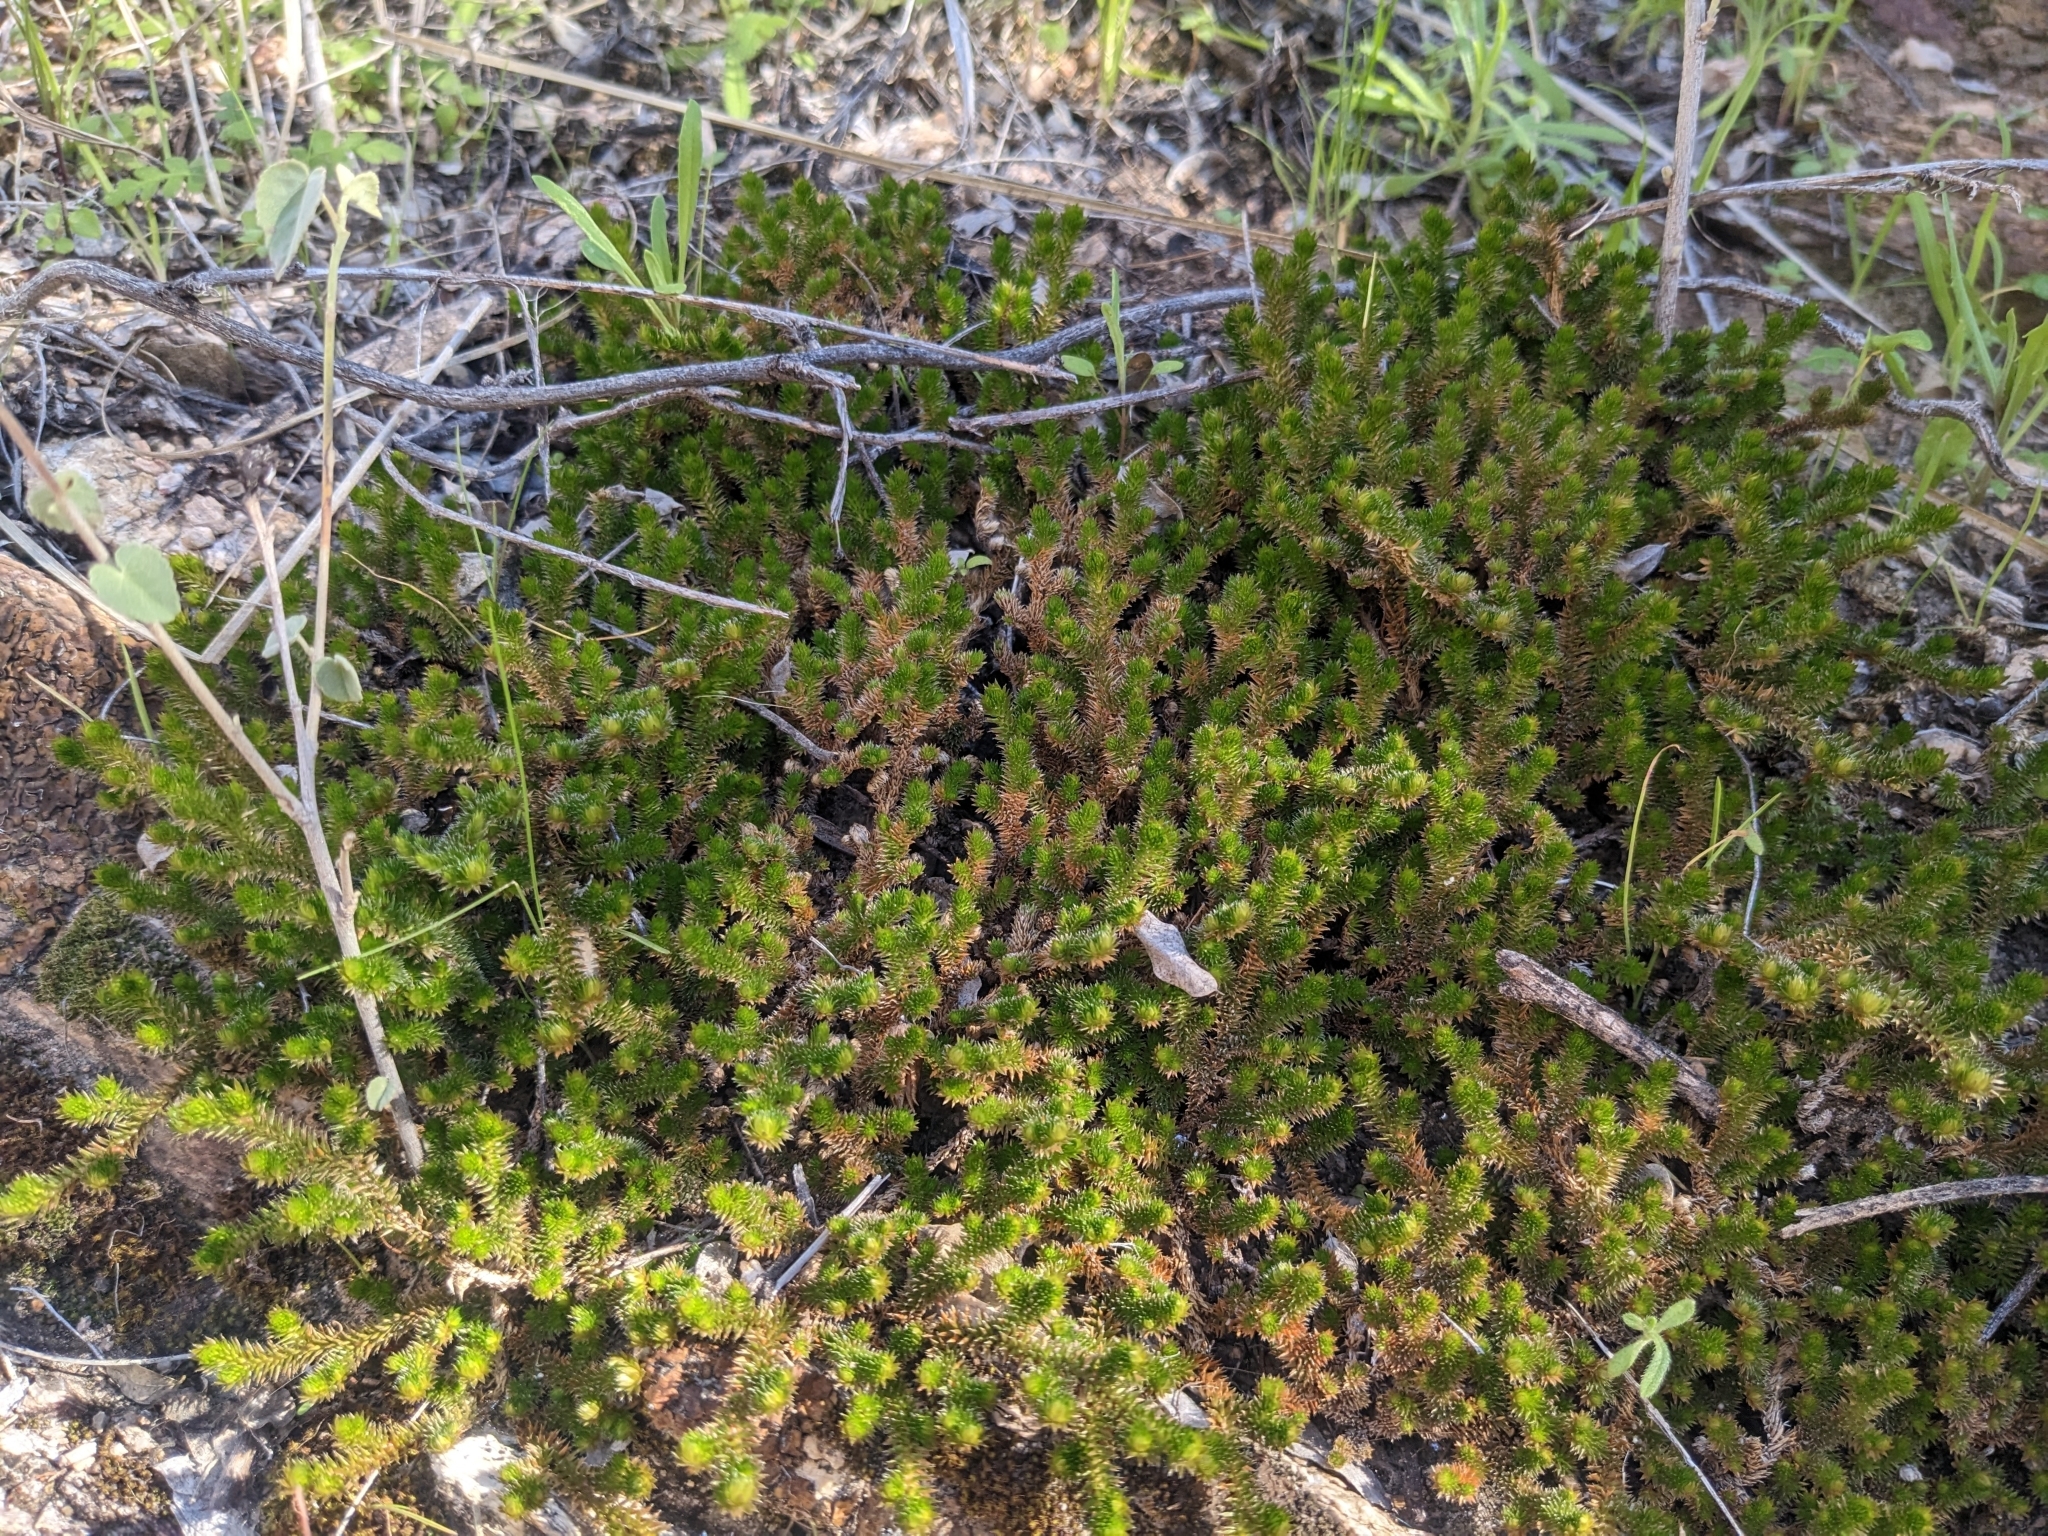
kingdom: Plantae
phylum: Tracheophyta
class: Lycopodiopsida
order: Selaginellales
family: Selaginellaceae
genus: Selaginella
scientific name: Selaginella arizonica
